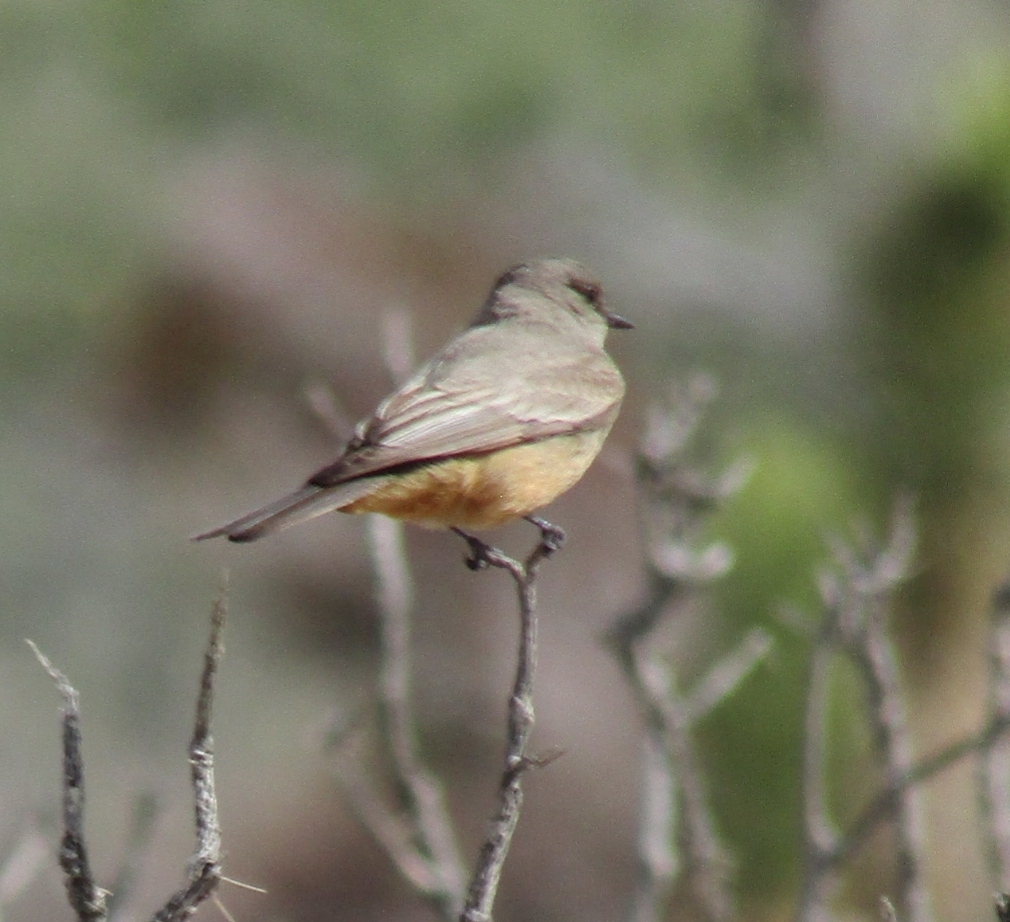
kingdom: Animalia
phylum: Chordata
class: Aves
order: Passeriformes
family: Tyrannidae
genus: Sayornis
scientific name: Sayornis saya
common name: Say's phoebe
